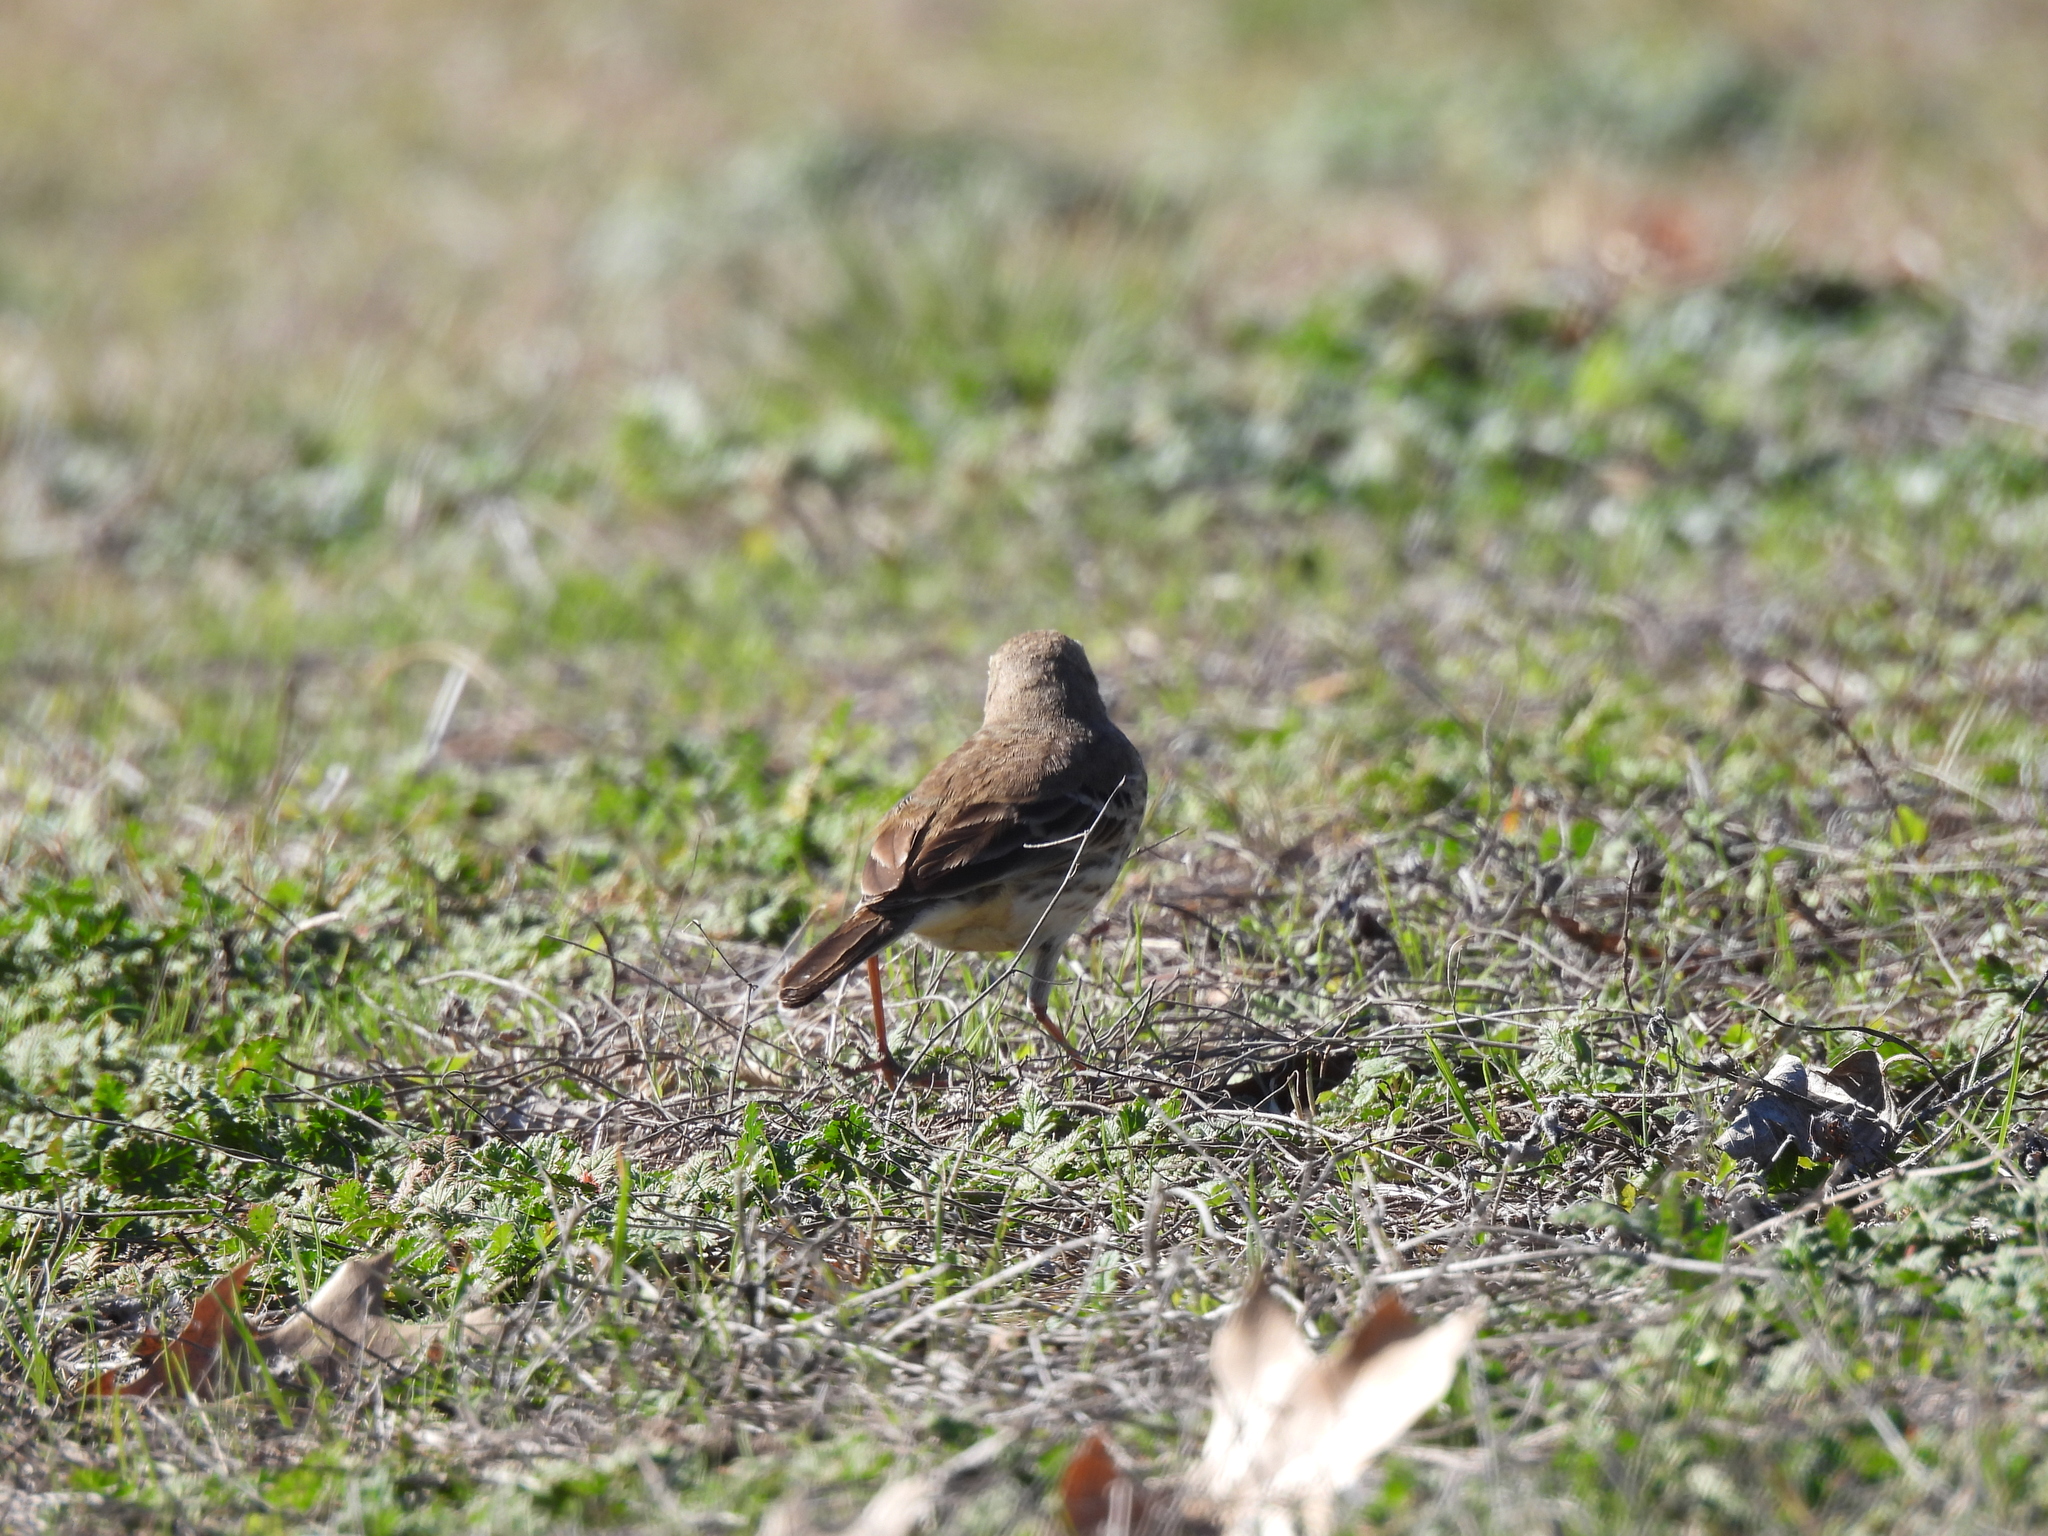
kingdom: Animalia
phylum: Chordata
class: Aves
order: Passeriformes
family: Motacillidae
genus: Anthus
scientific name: Anthus rubescens
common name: Buff-bellied pipit
